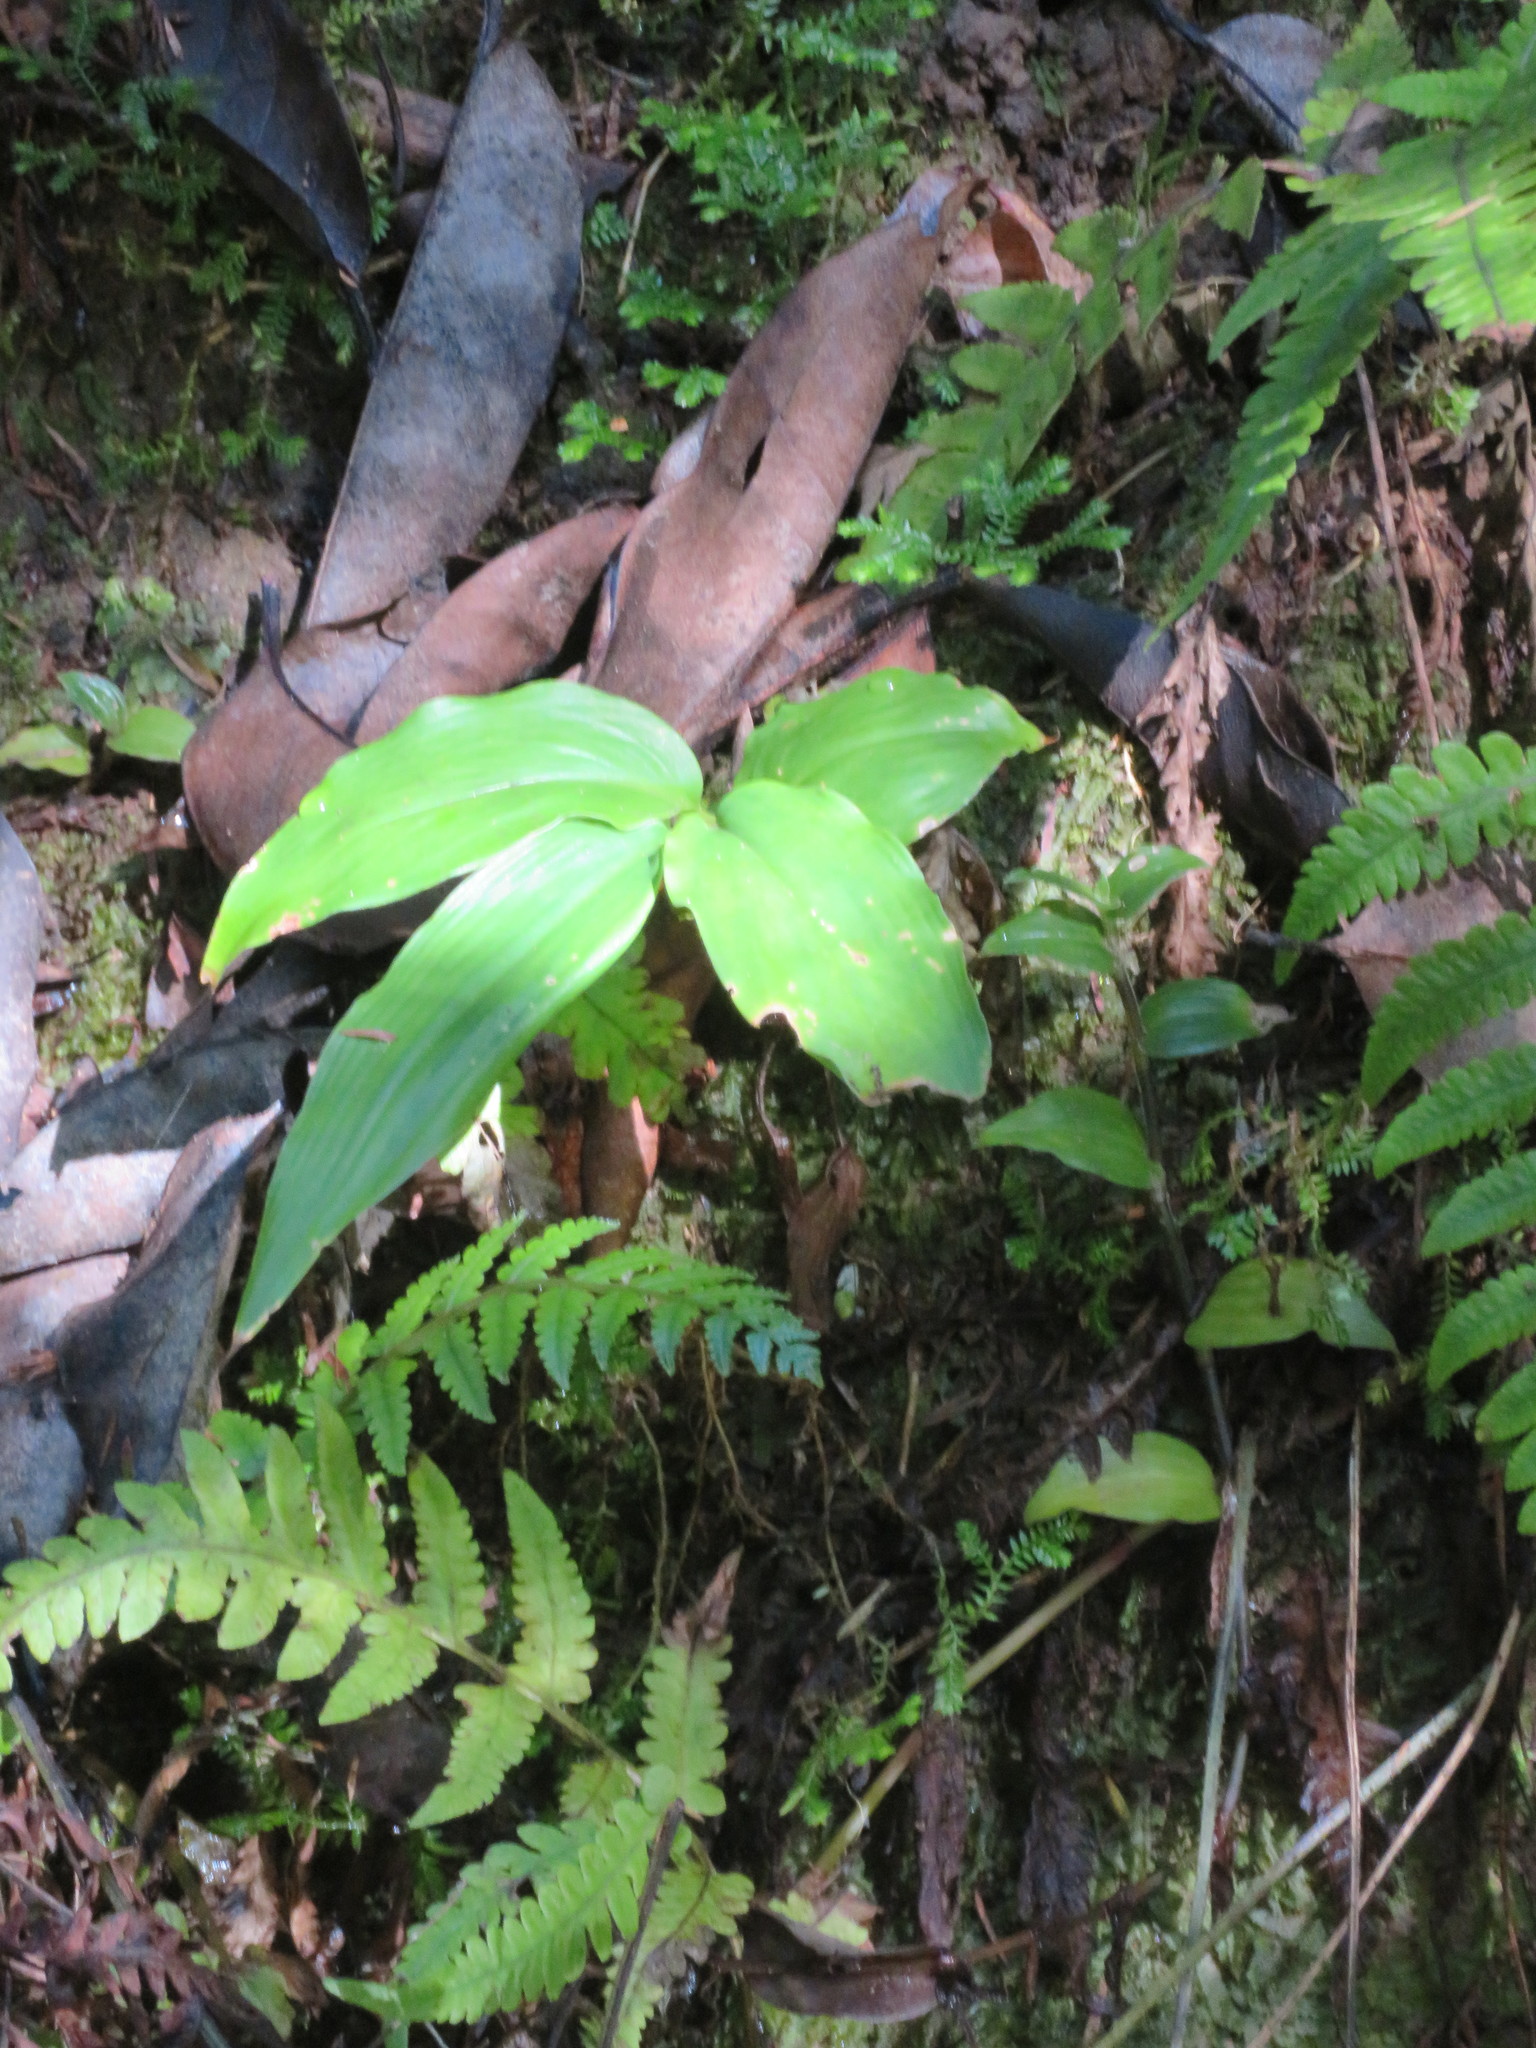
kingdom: Plantae
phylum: Tracheophyta
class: Liliopsida
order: Zingiberales
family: Zingiberaceae
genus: Hedychium
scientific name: Hedychium gardnerianum
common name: Himalayan ginger
